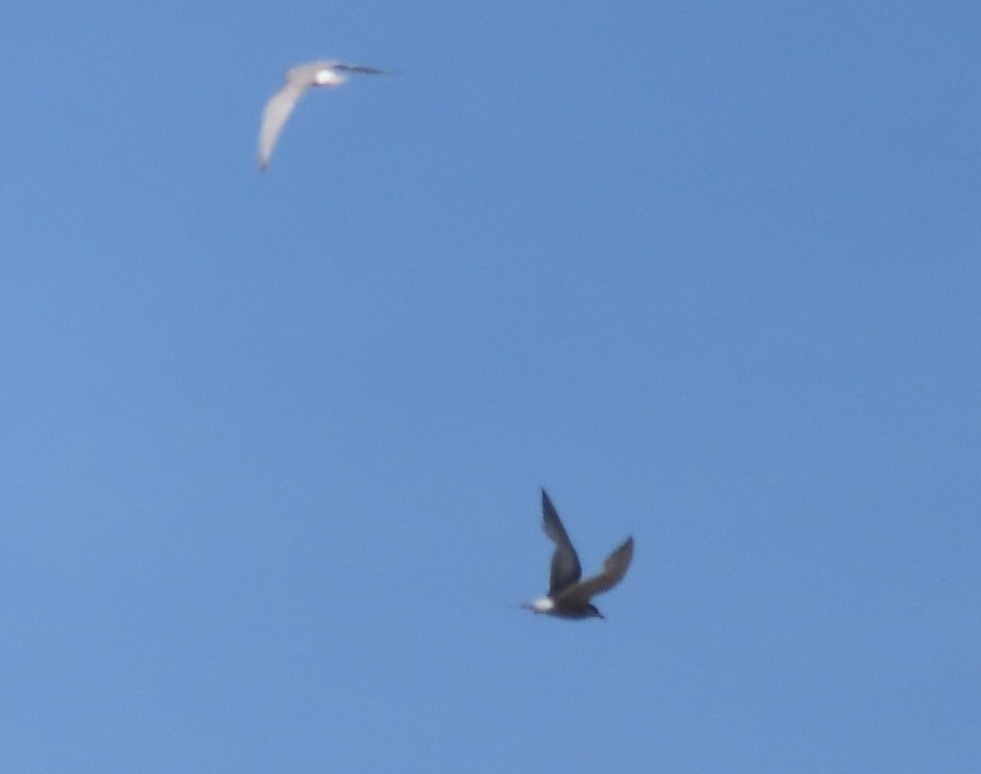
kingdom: Animalia
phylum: Chordata
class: Aves
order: Charadriiformes
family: Laridae
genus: Chlidonias
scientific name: Chlidonias albostriatus
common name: Black-fronted tern
